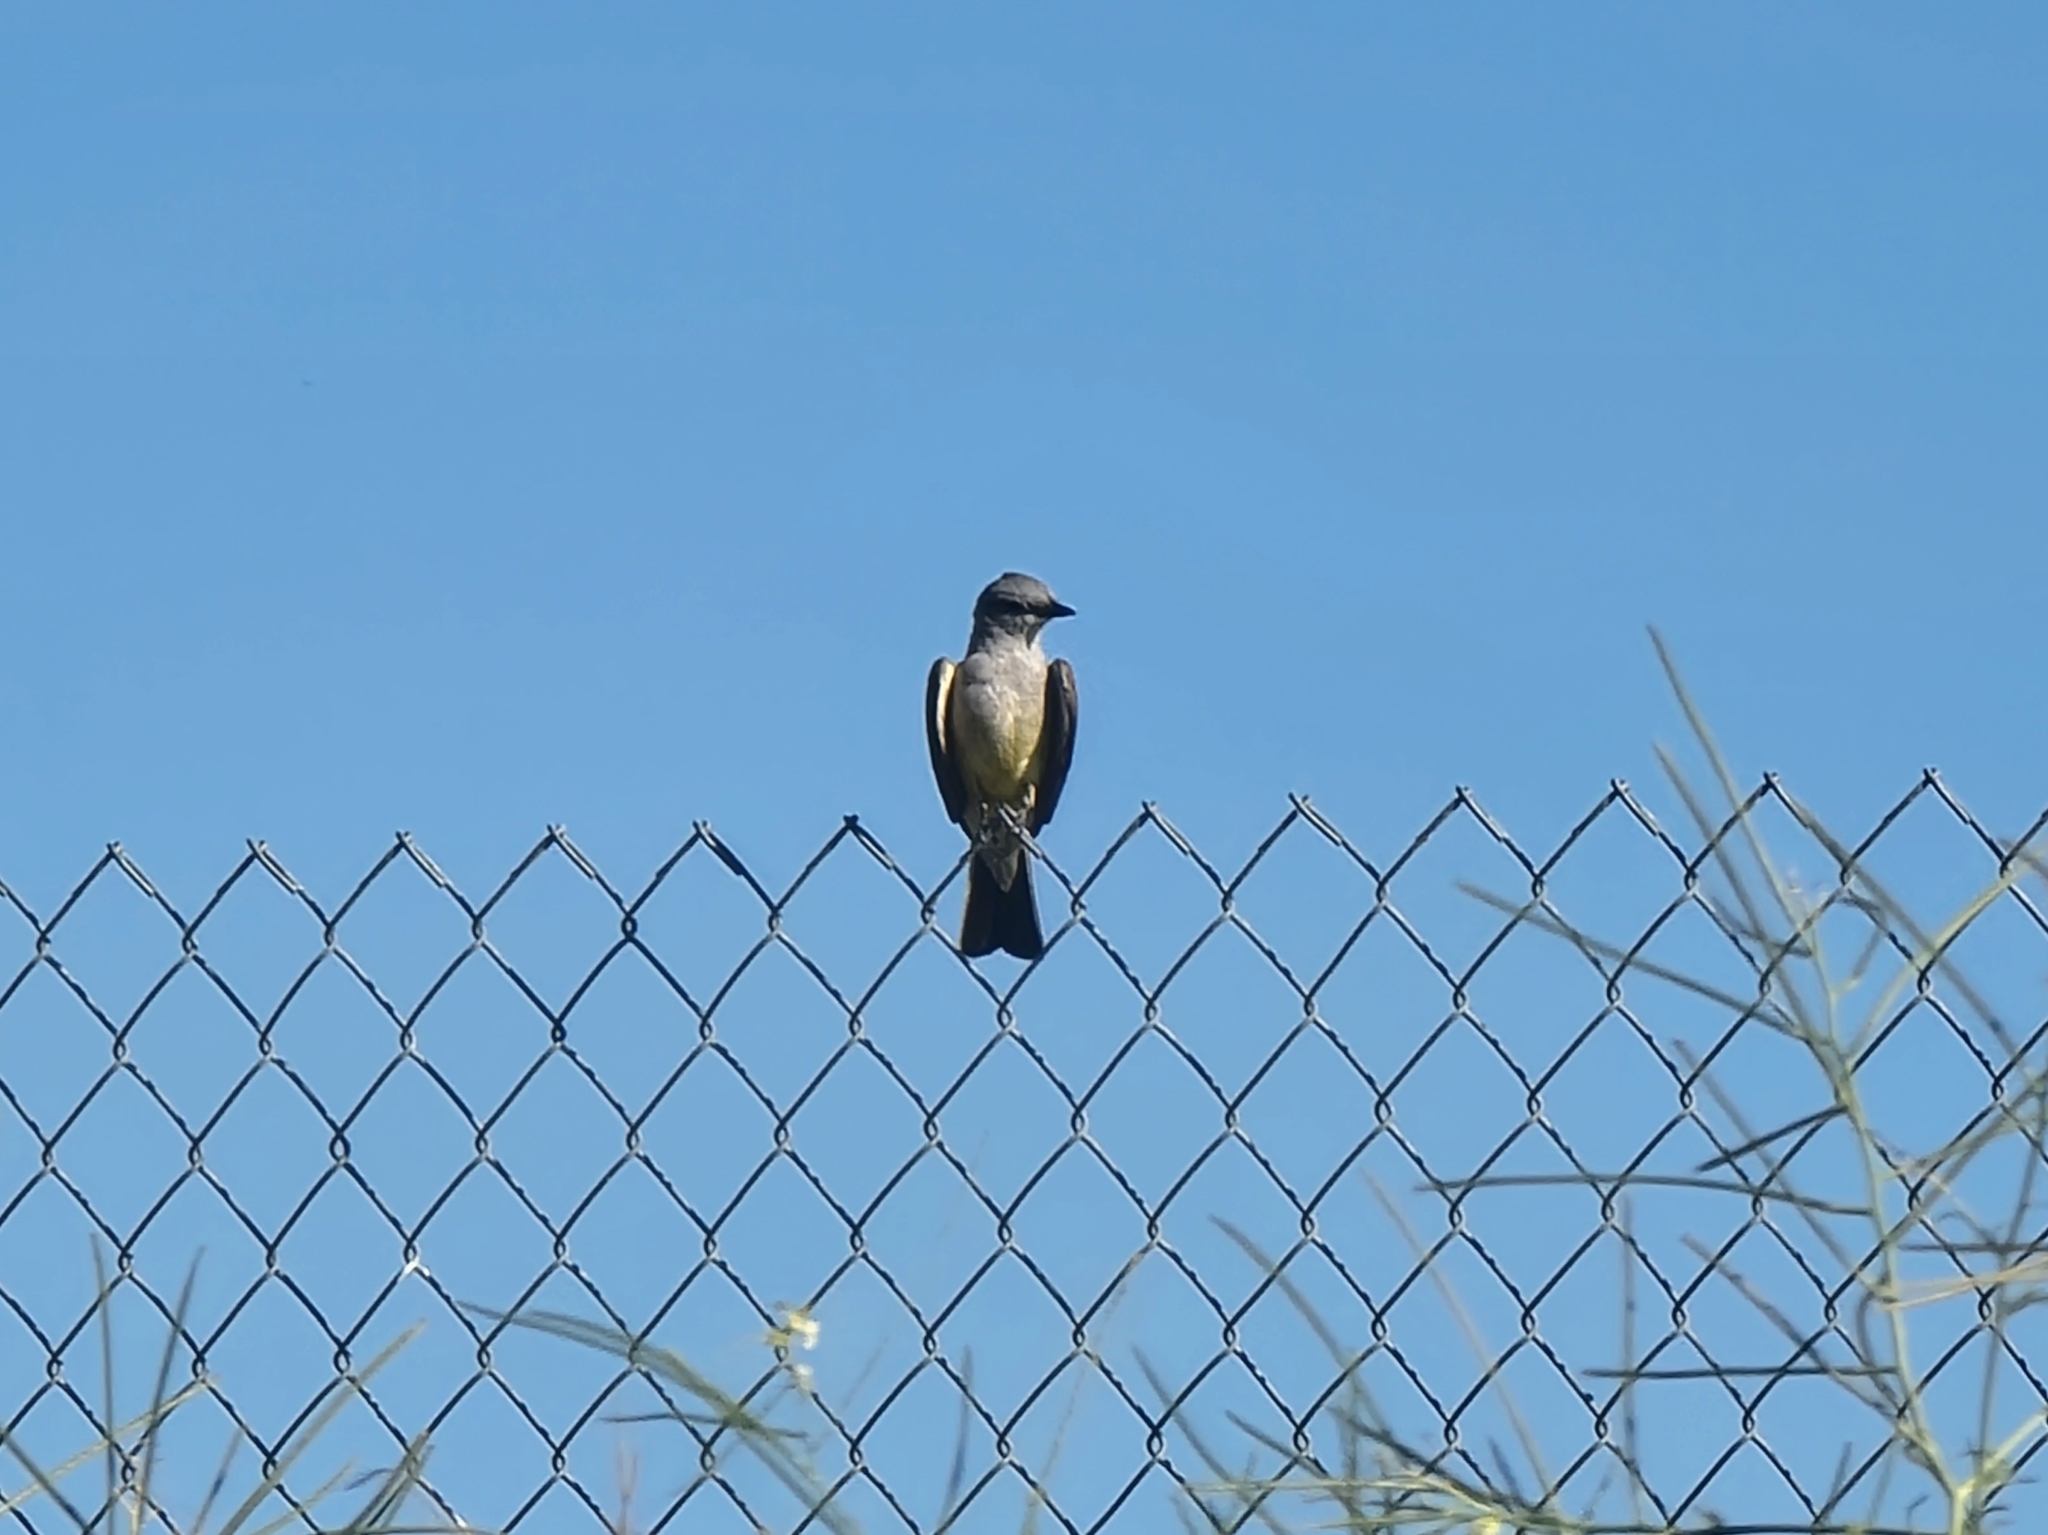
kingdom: Animalia
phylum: Chordata
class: Aves
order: Passeriformes
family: Tyrannidae
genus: Tyrannus
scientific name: Tyrannus verticalis
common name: Western kingbird
